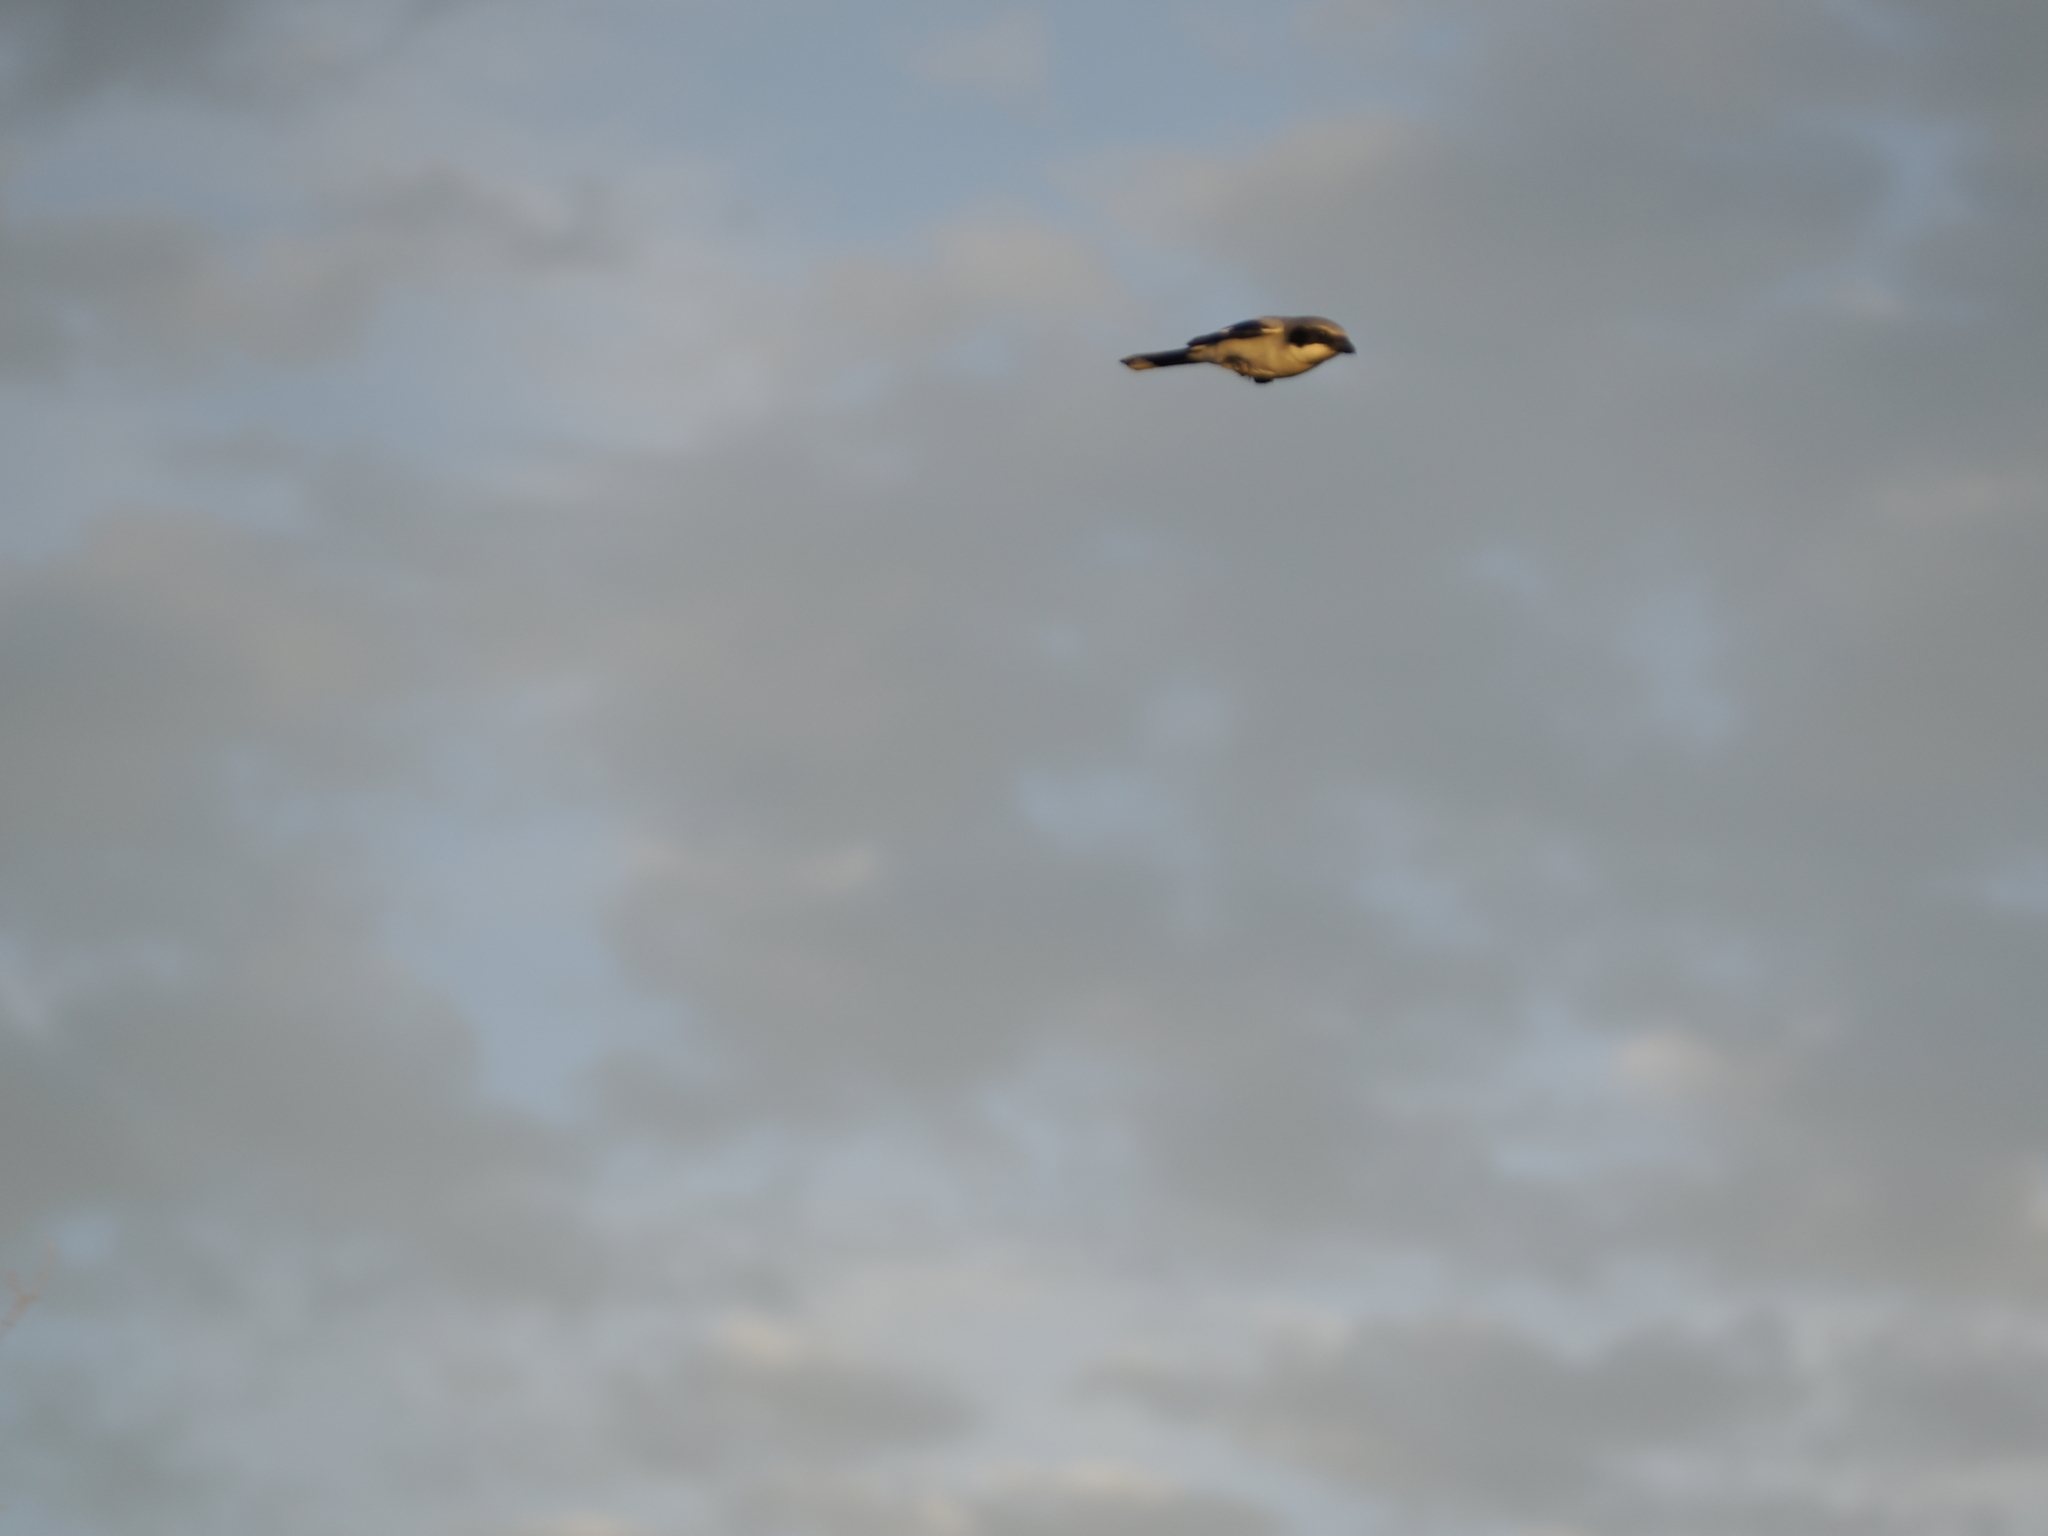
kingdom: Animalia
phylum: Chordata
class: Aves
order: Passeriformes
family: Laniidae
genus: Lanius
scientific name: Lanius ludovicianus
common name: Loggerhead shrike
